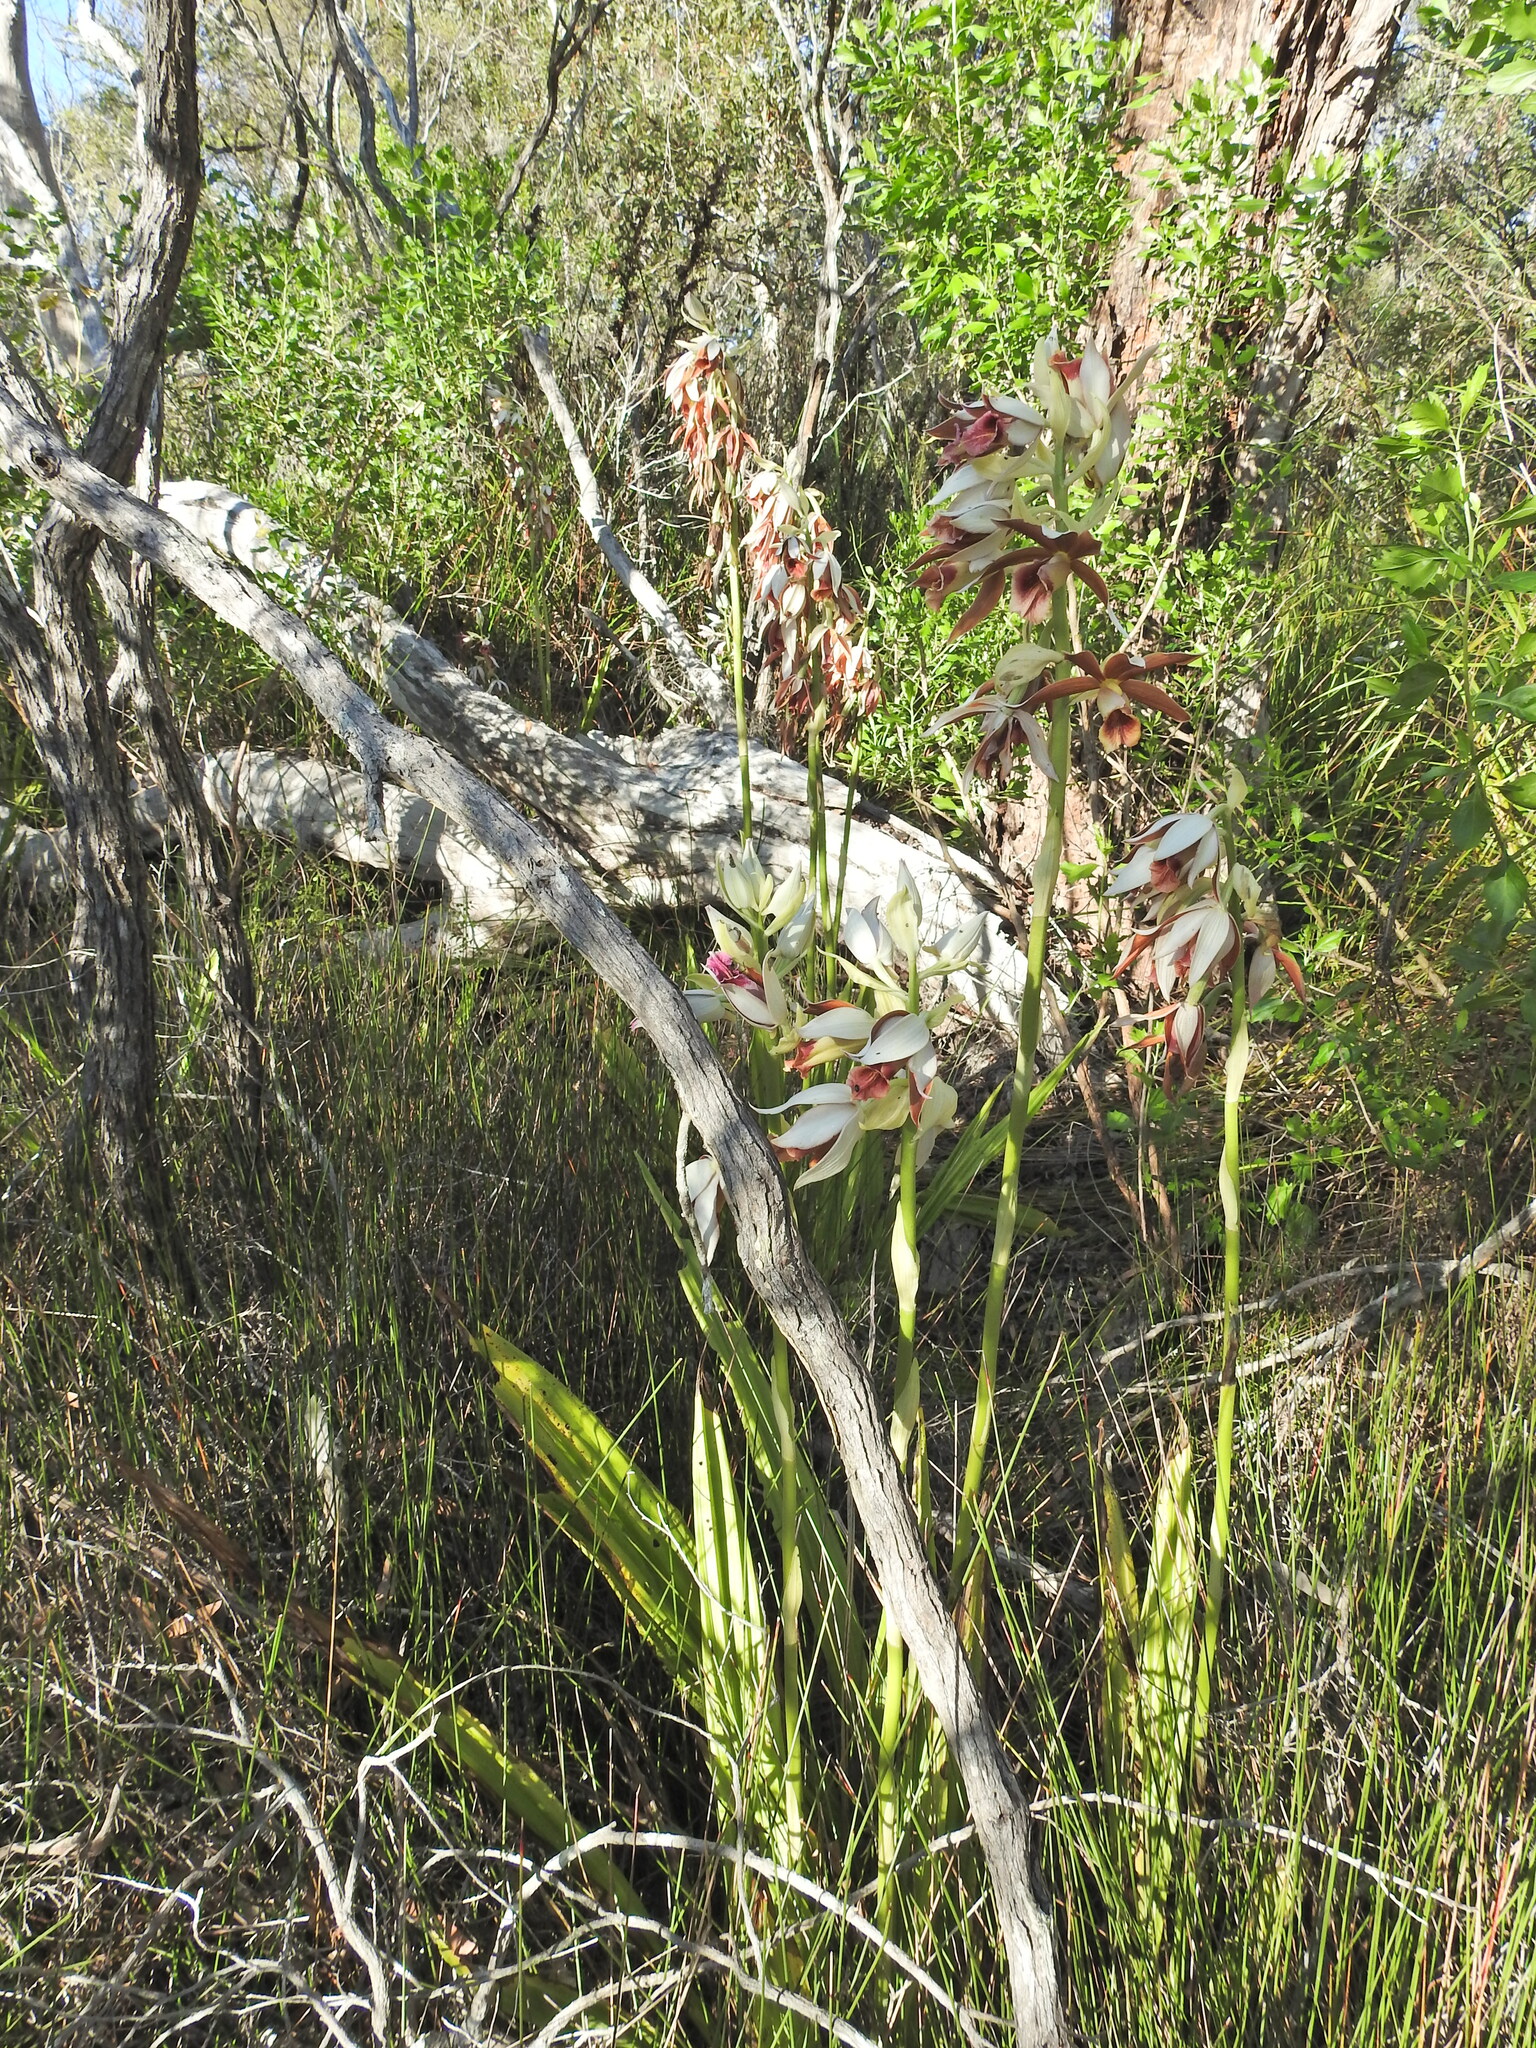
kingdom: Plantae
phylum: Tracheophyta
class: Liliopsida
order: Asparagales
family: Orchidaceae
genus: Calanthe
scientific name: Calanthe tankervilleae
